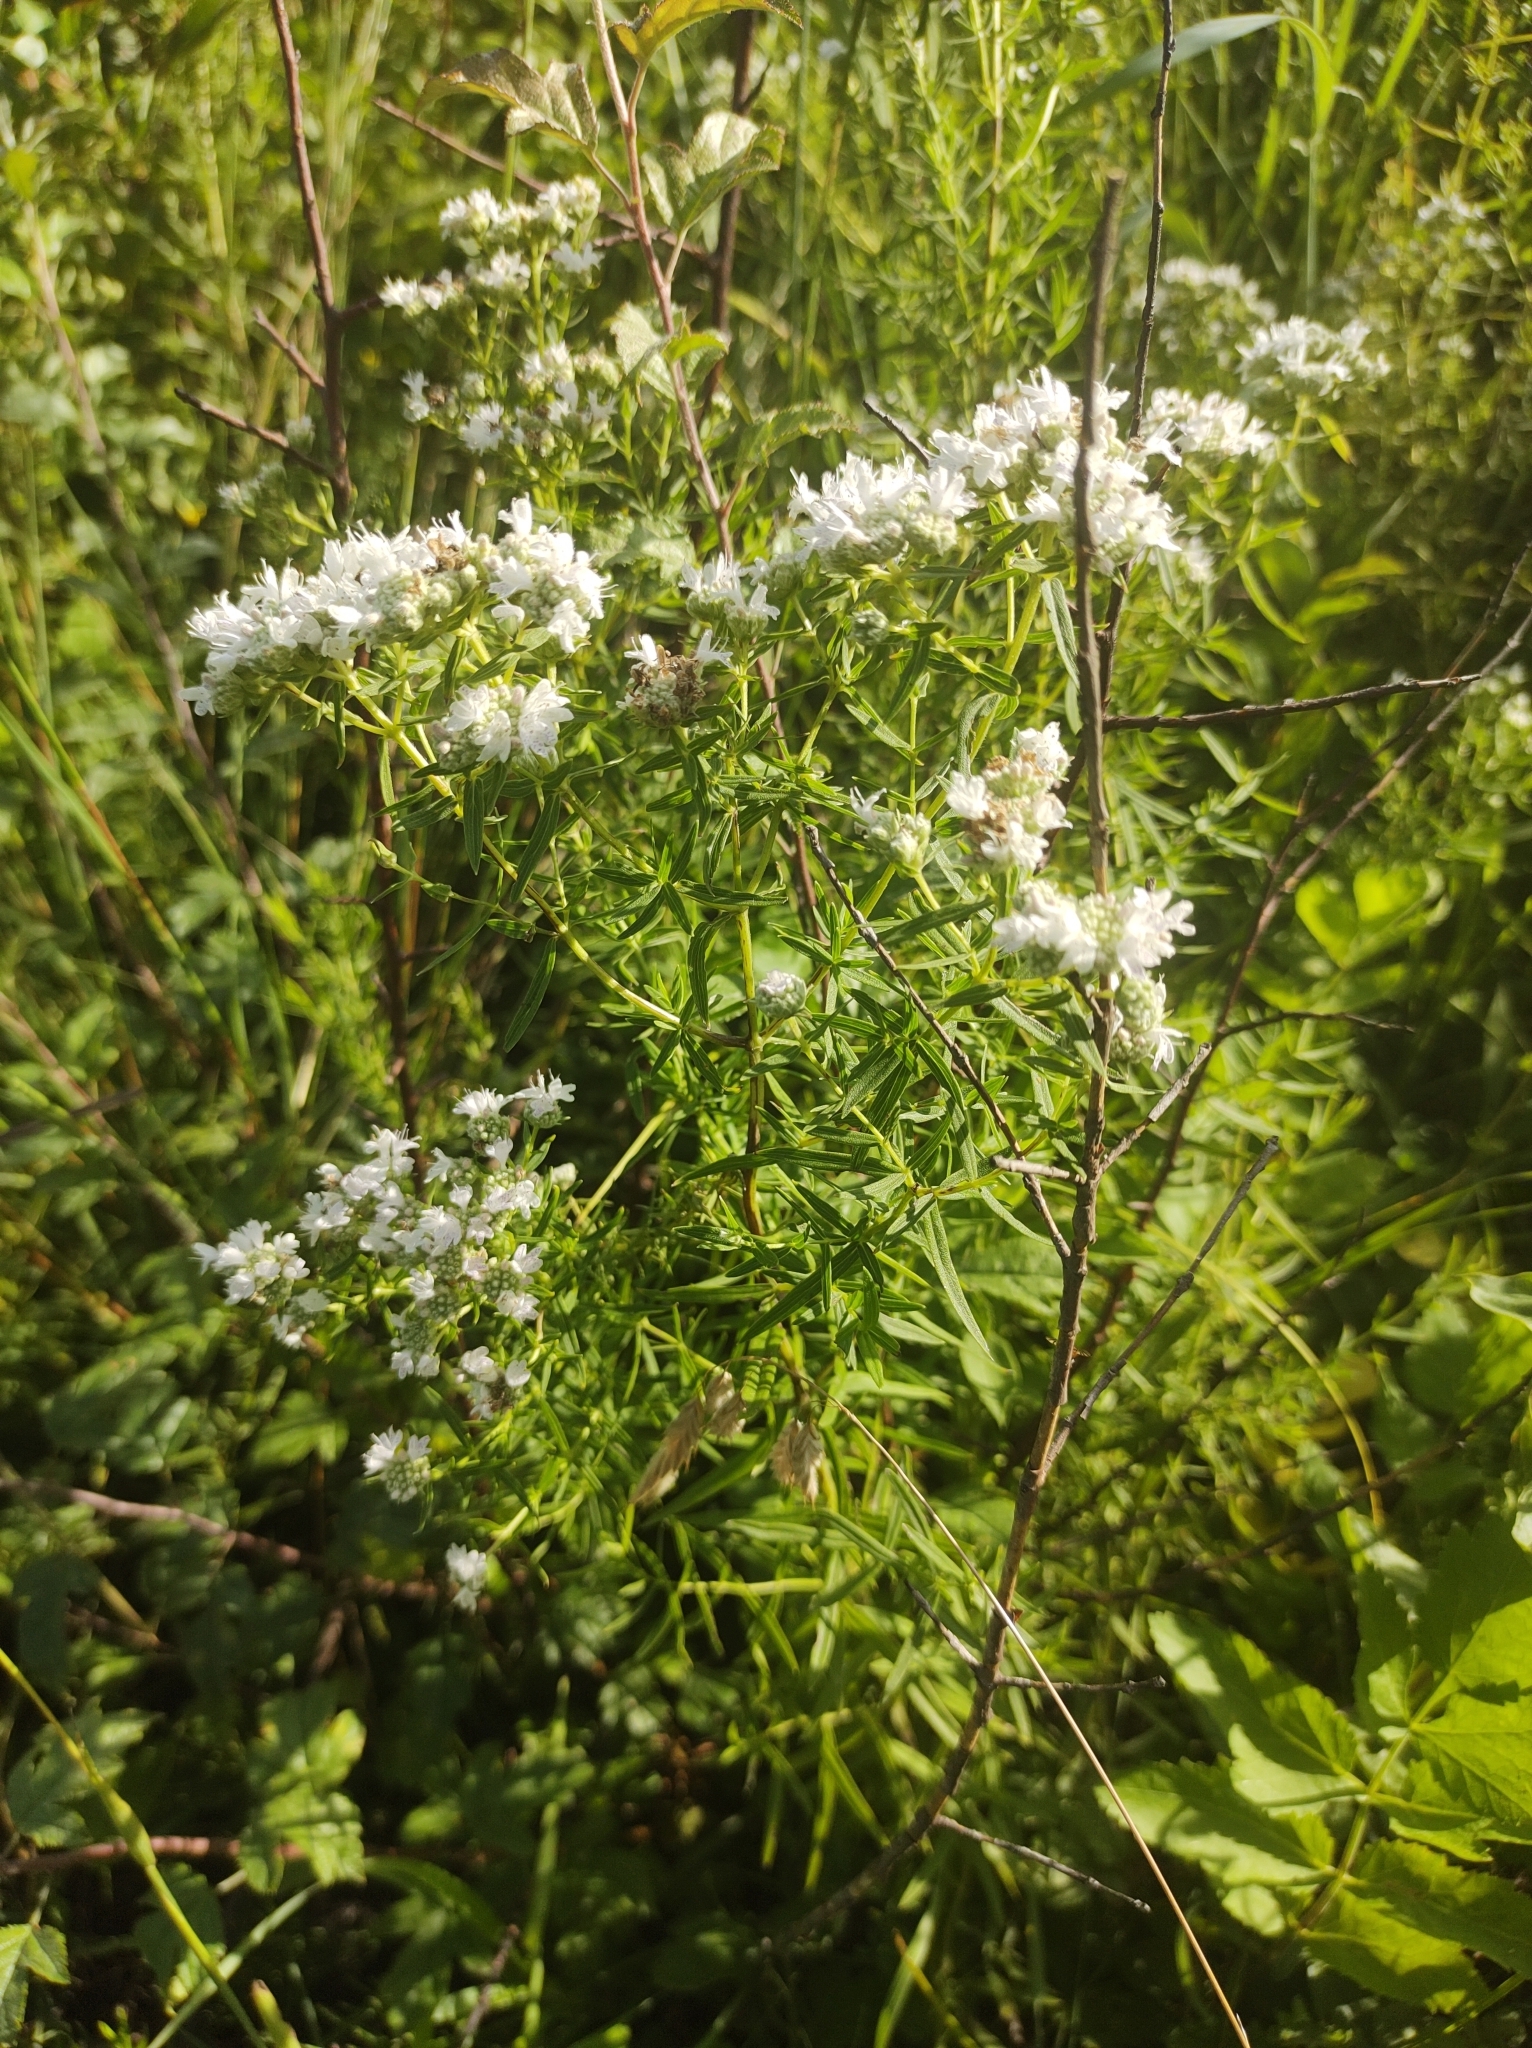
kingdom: Plantae
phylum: Tracheophyta
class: Magnoliopsida
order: Lamiales
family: Lamiaceae
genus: Pycnanthemum
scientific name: Pycnanthemum virginianum
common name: Virginia mountain-mint
